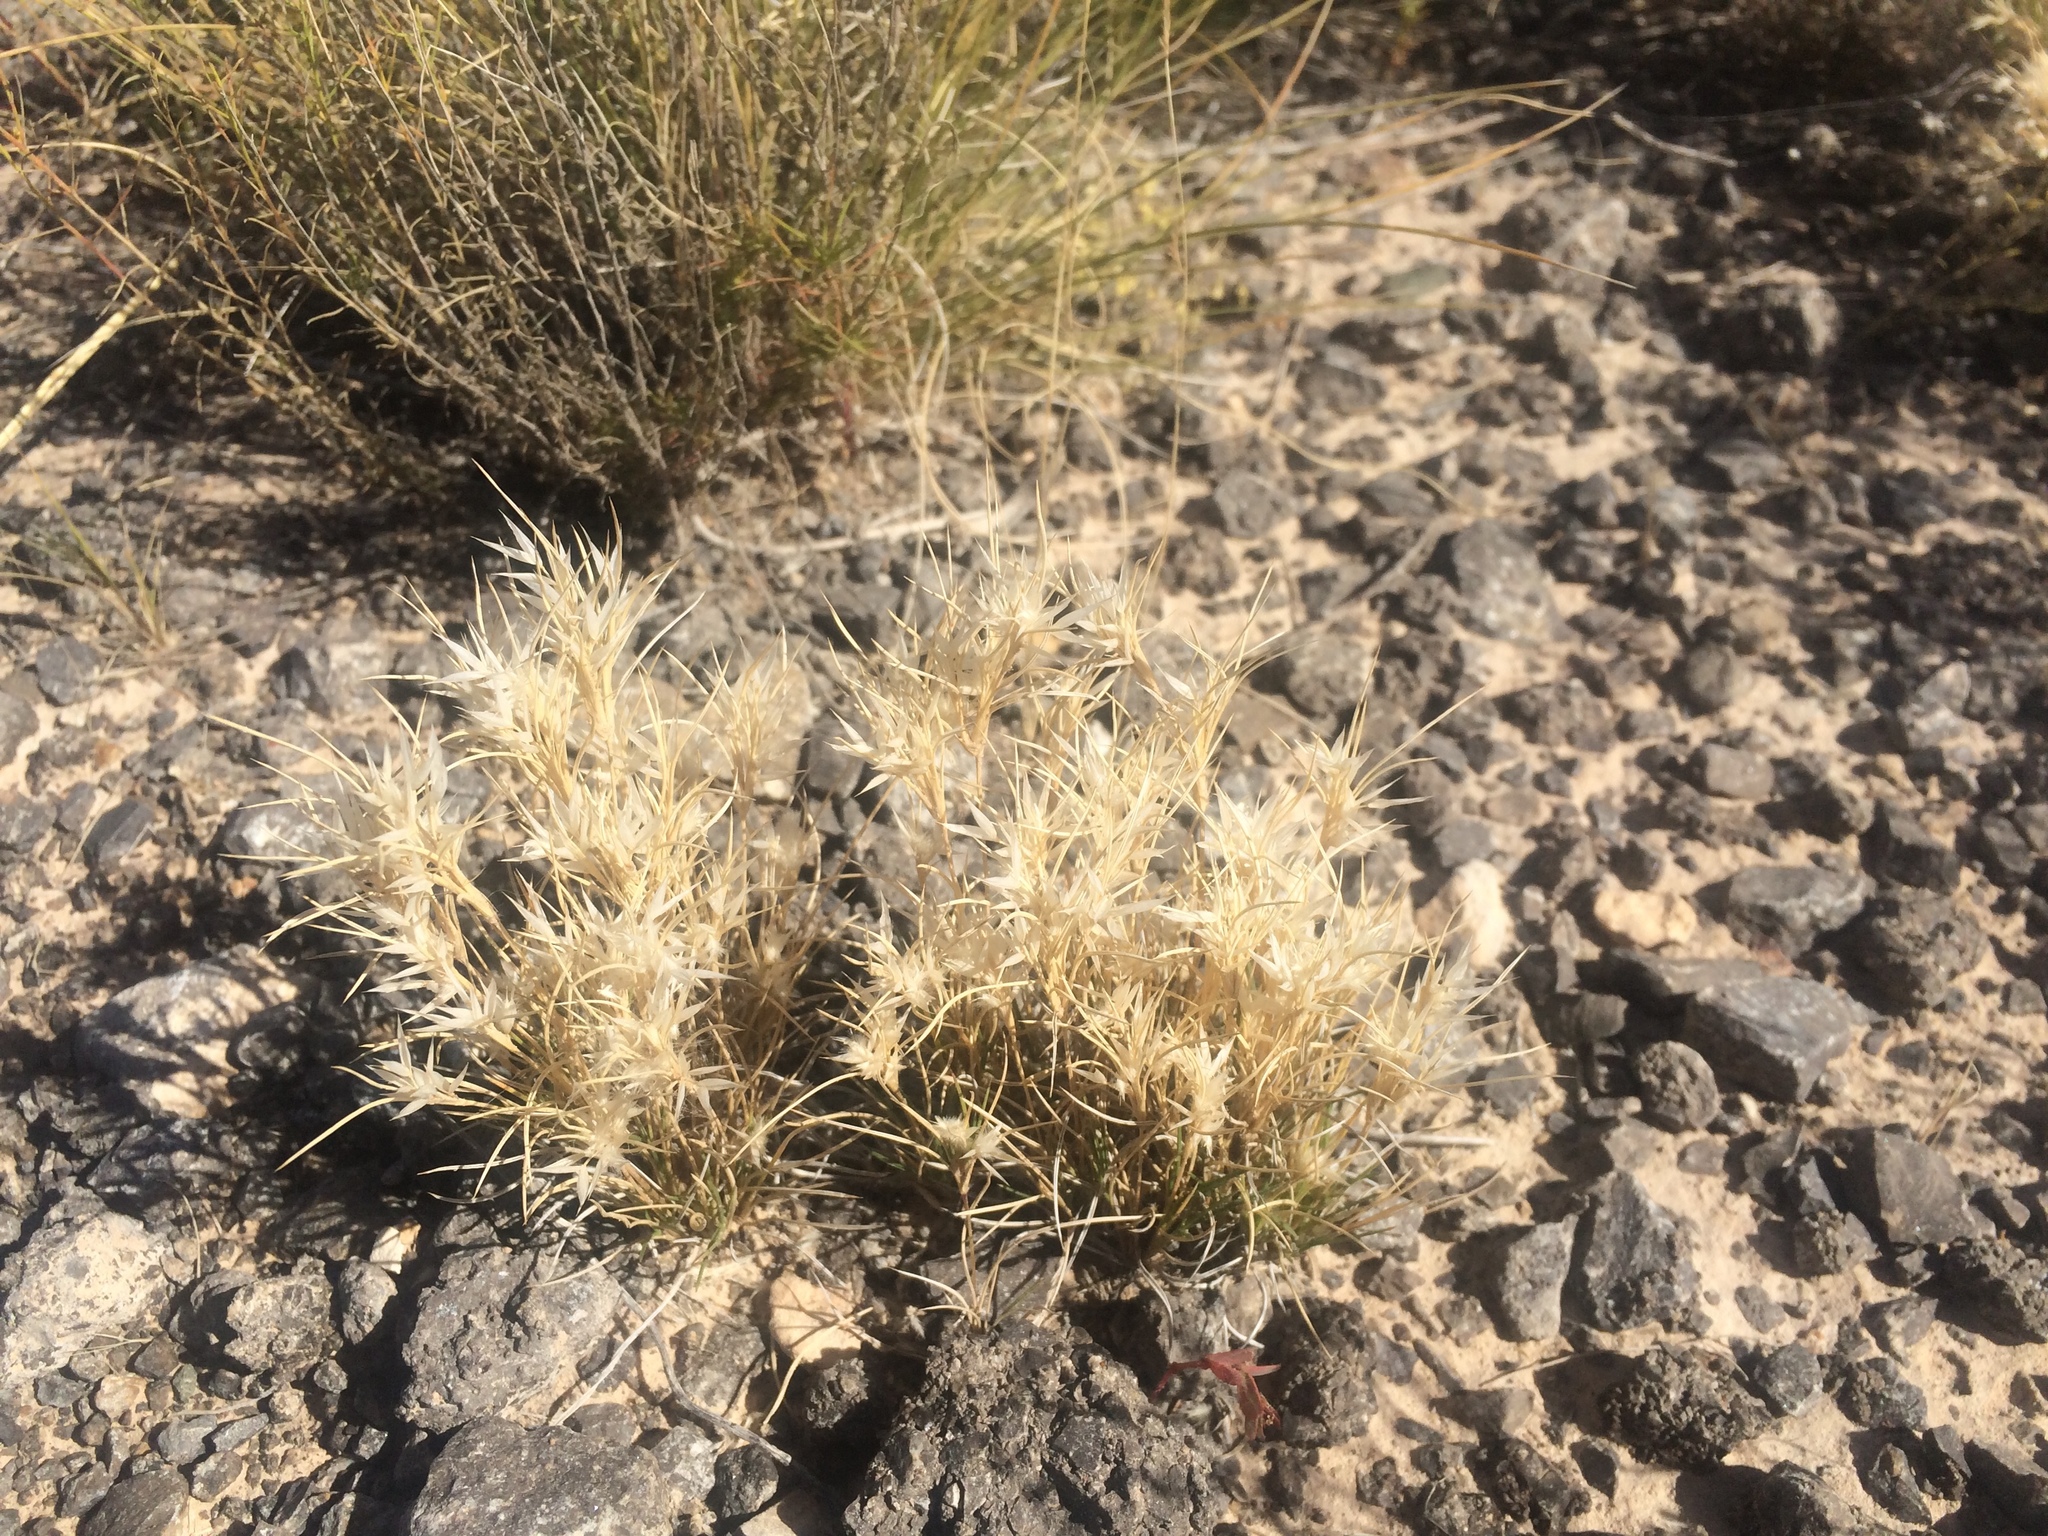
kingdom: Plantae
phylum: Tracheophyta
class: Liliopsida
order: Poales
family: Poaceae
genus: Dasyochloa
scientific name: Dasyochloa pulchella
